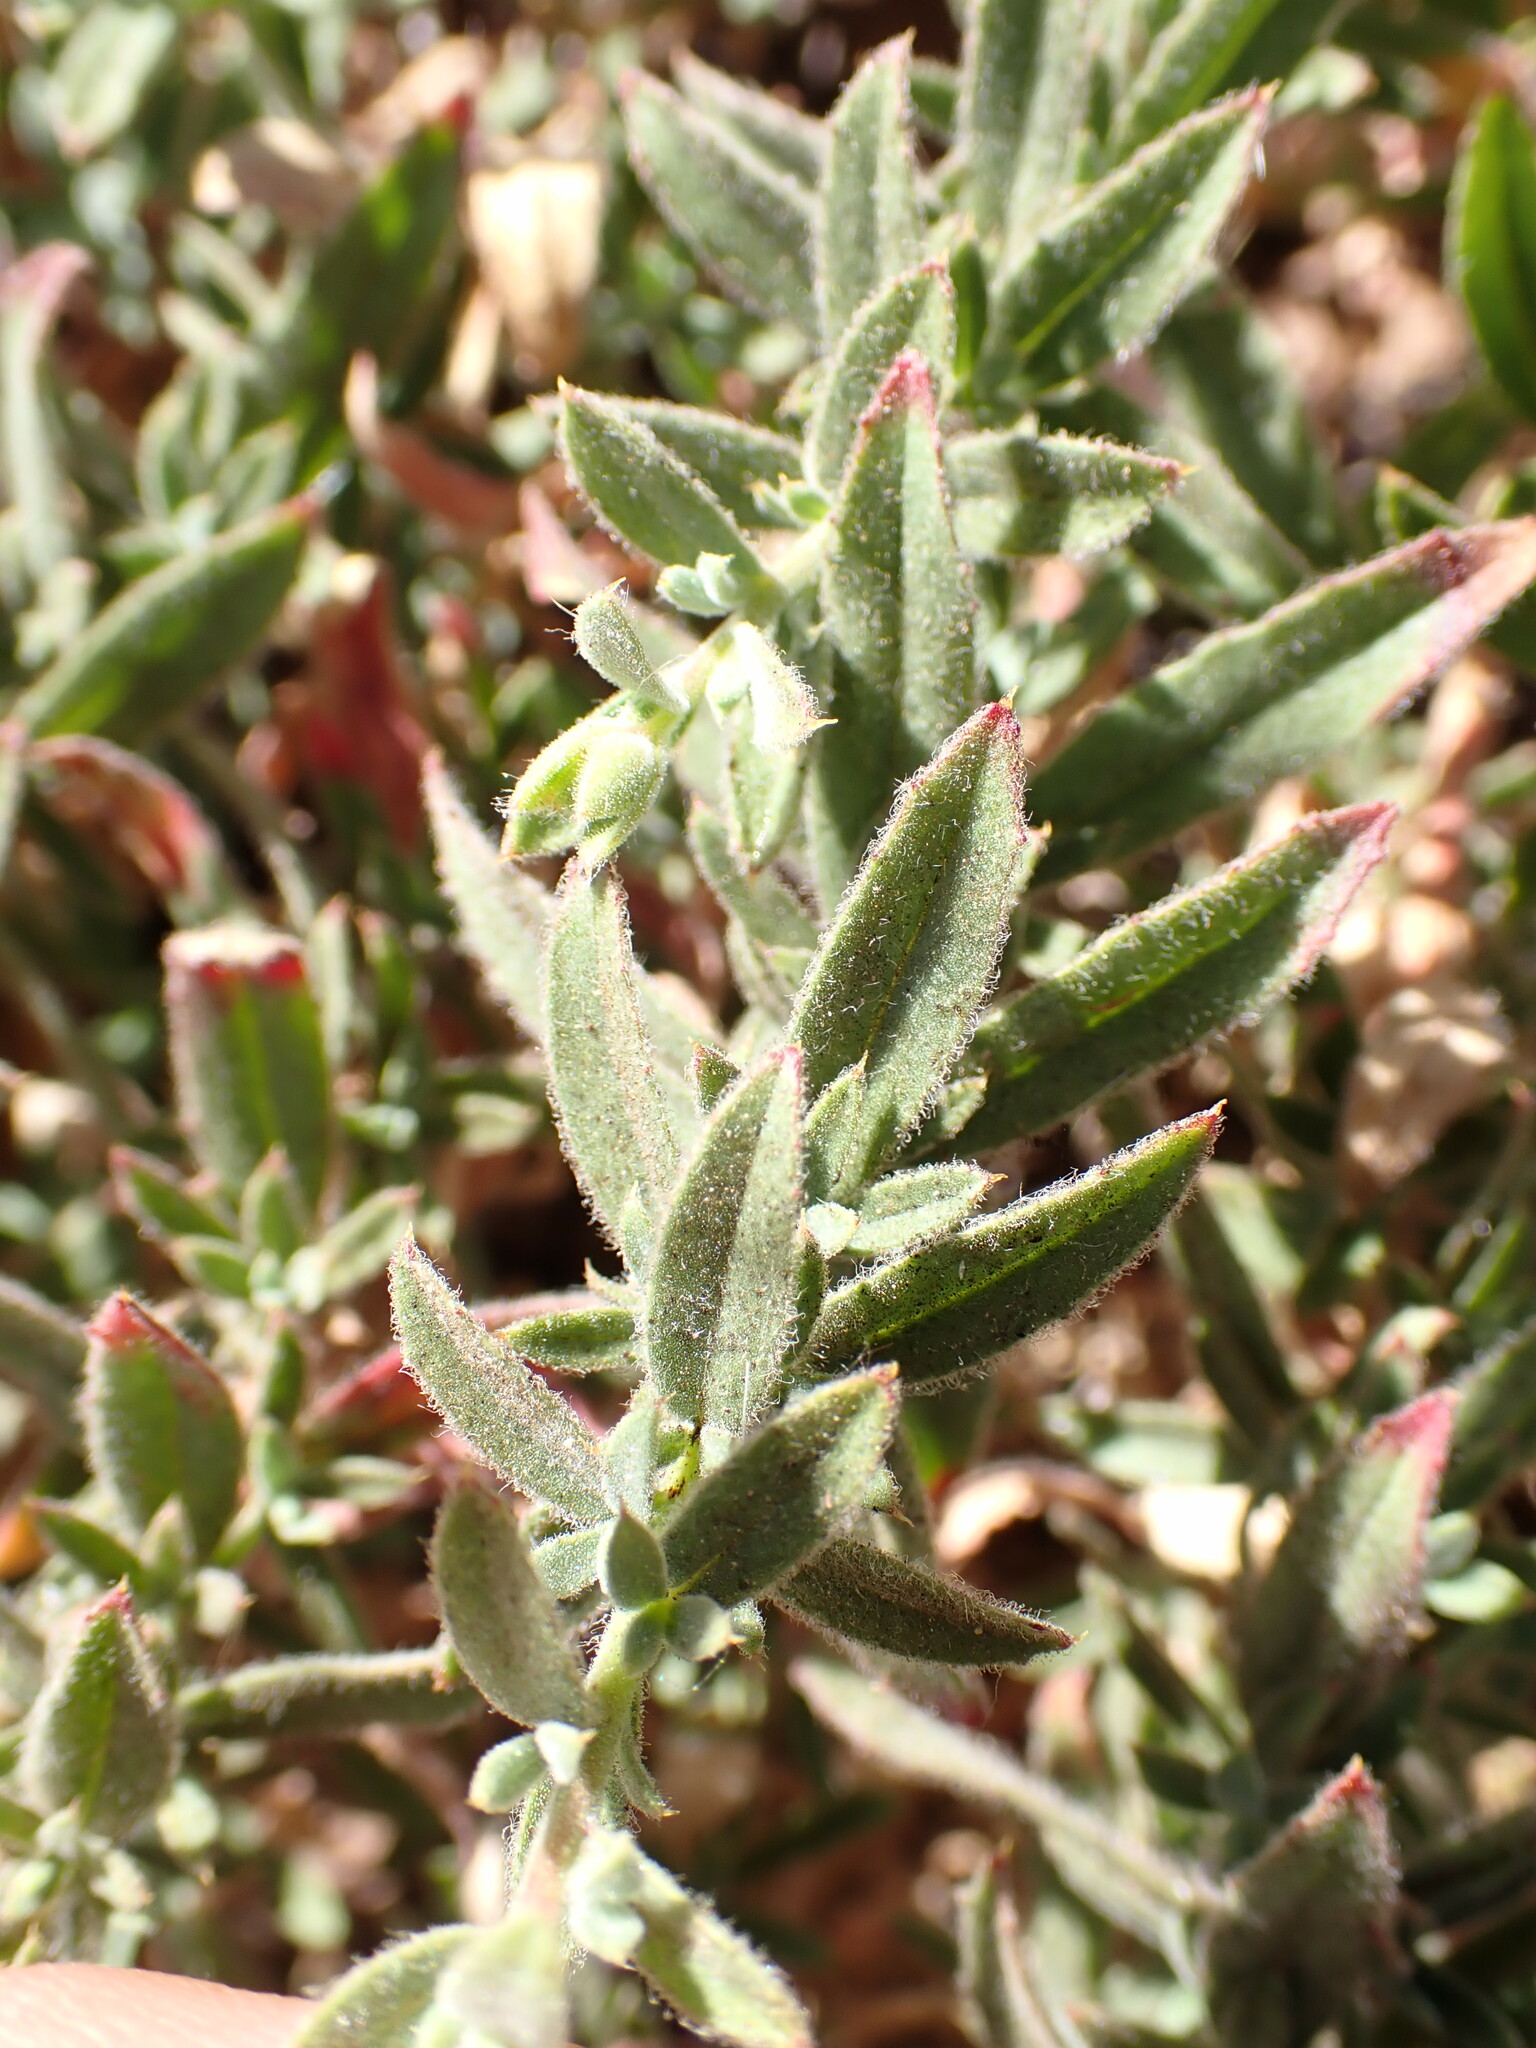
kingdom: Plantae
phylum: Tracheophyta
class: Magnoliopsida
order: Myrtales
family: Onagraceae
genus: Epilobium
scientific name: Epilobium canum
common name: California-fuchsia
